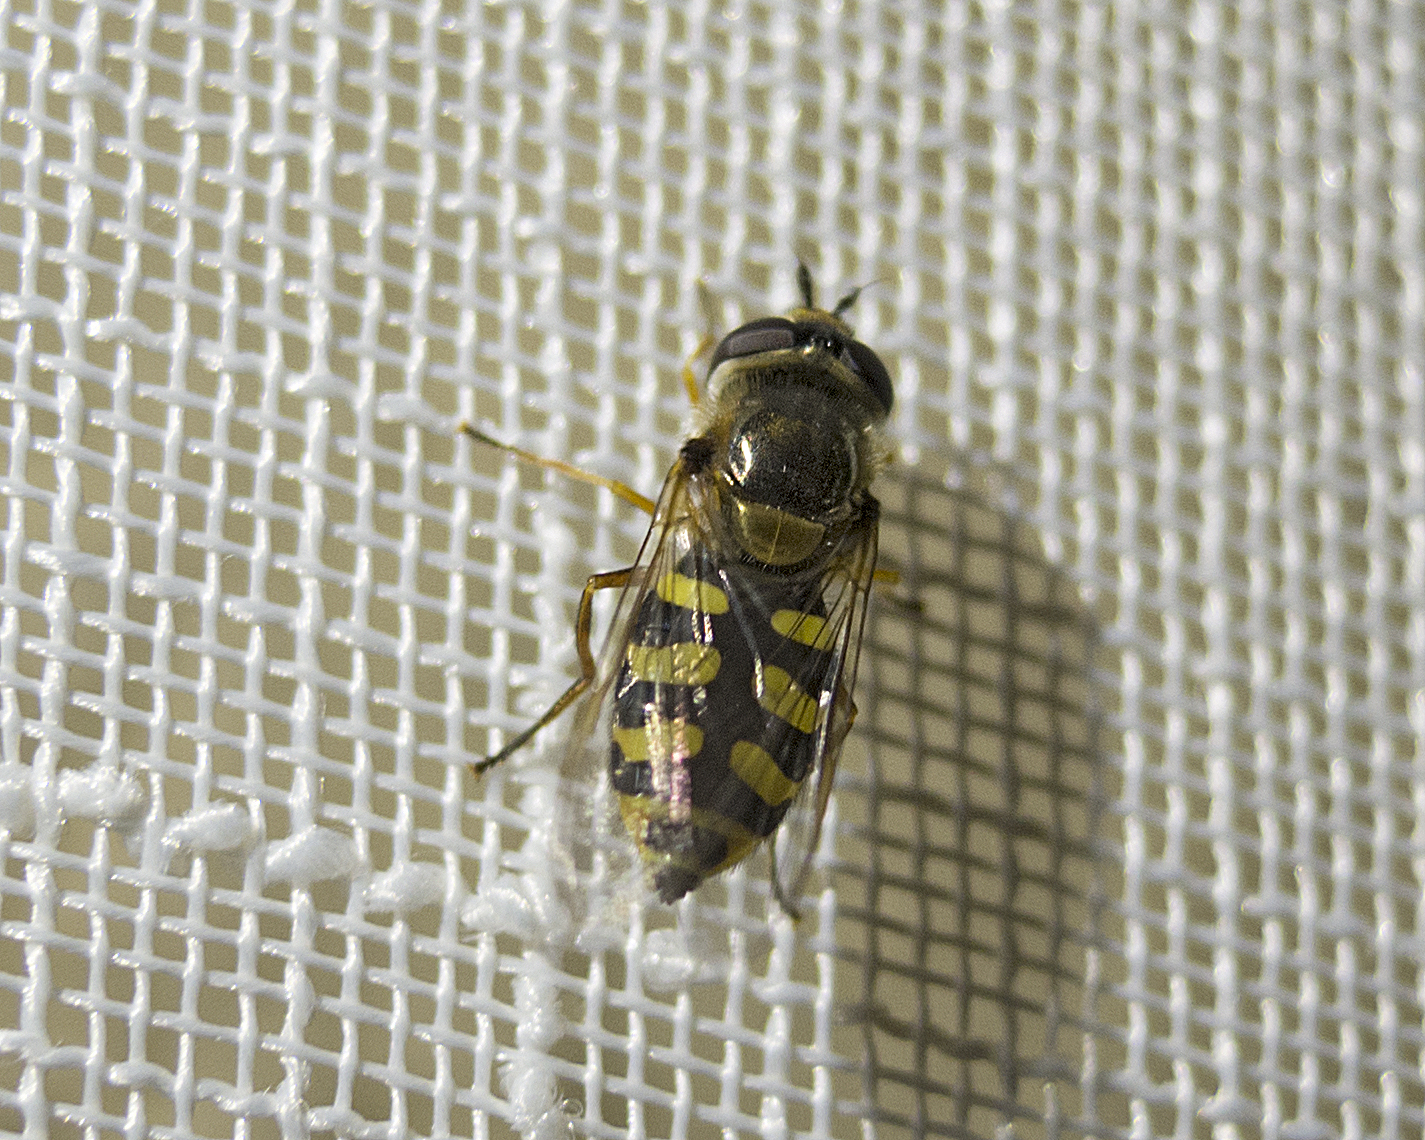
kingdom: Animalia
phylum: Arthropoda
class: Insecta
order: Diptera
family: Syrphidae
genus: Eupeodes
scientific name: Eupeodes corollae
